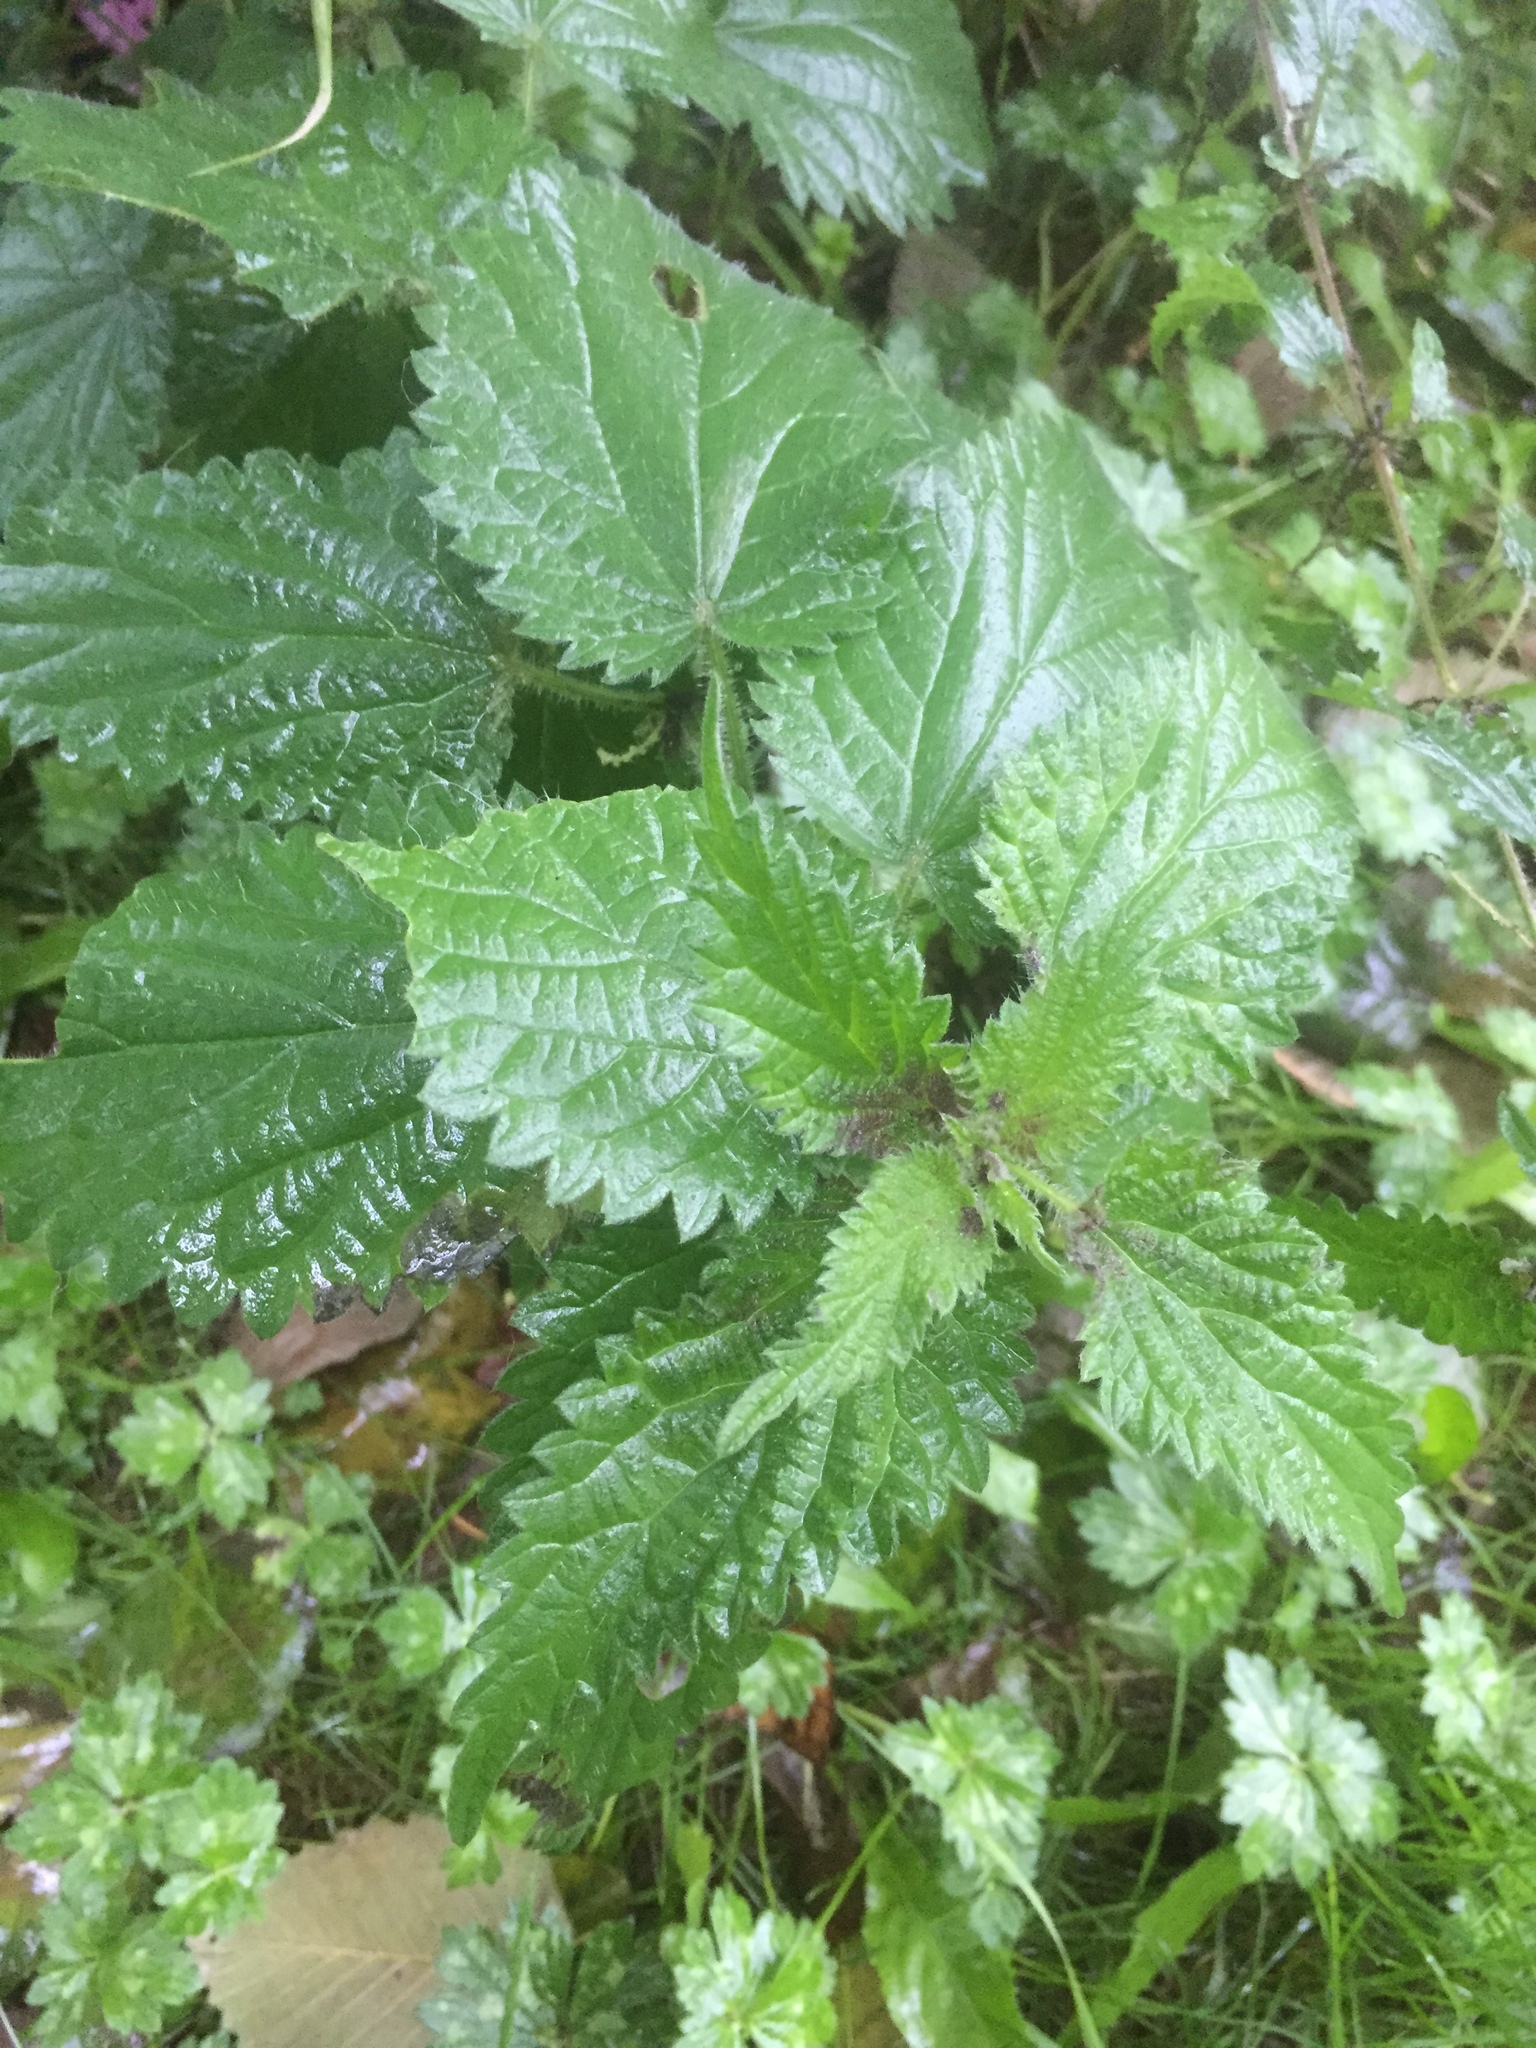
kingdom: Plantae
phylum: Tracheophyta
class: Magnoliopsida
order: Rosales
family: Urticaceae
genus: Urtica
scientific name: Urtica dioica
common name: Common nettle
